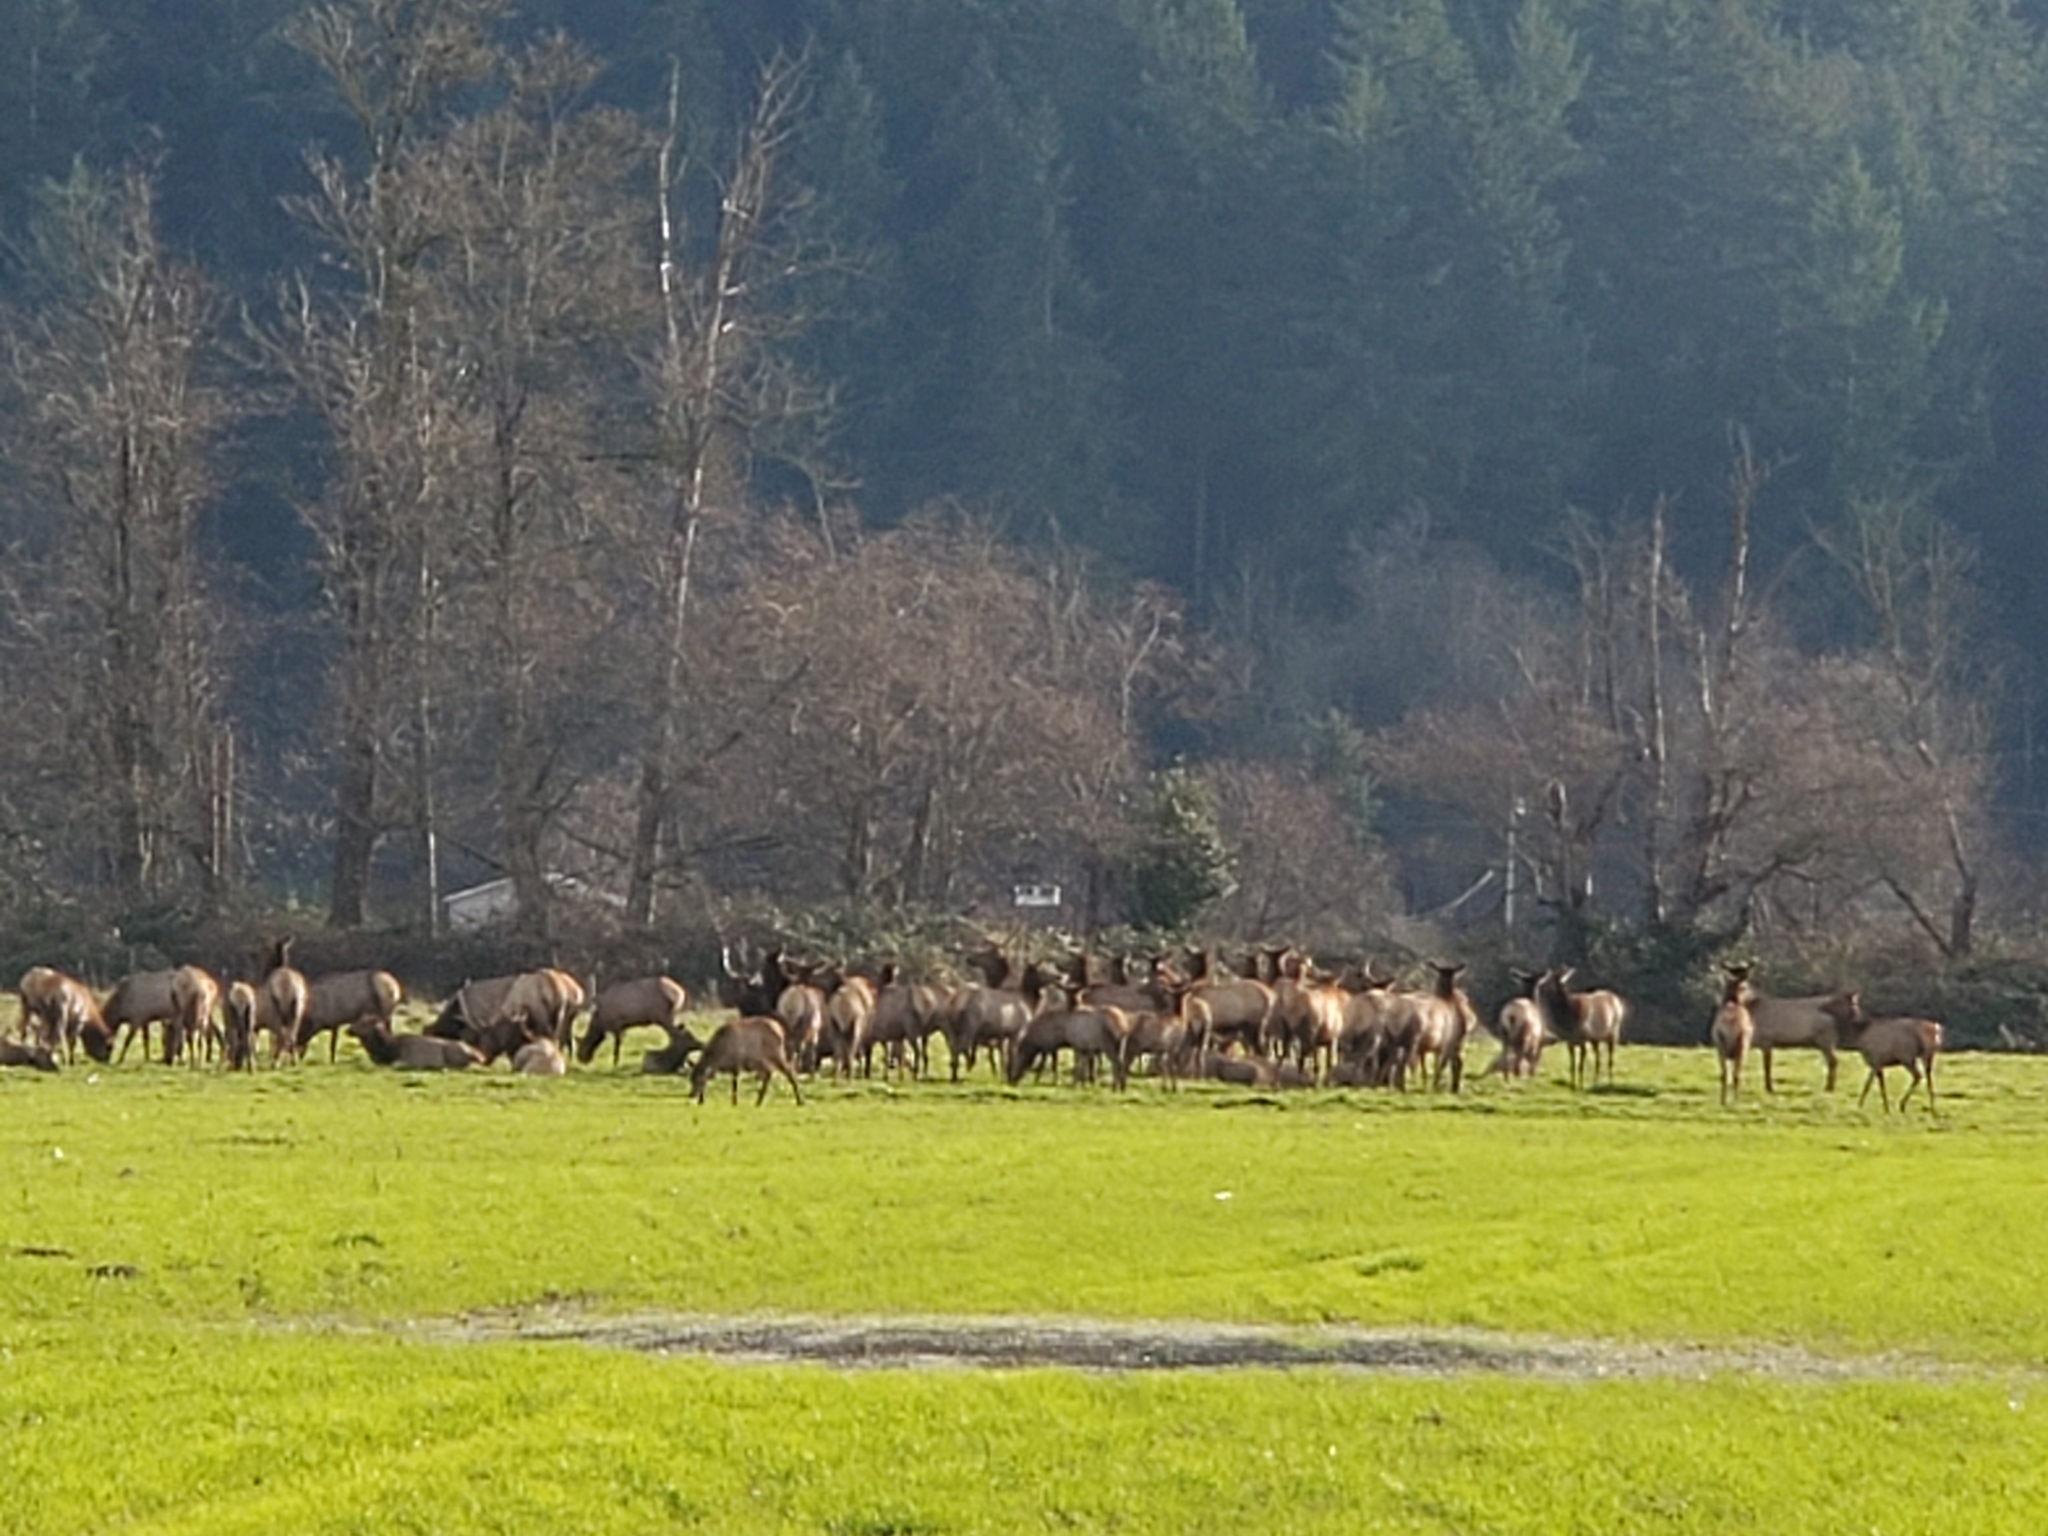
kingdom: Animalia
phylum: Chordata
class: Mammalia
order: Artiodactyla
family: Cervidae
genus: Cervus
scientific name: Cervus elaphus
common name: Red deer
